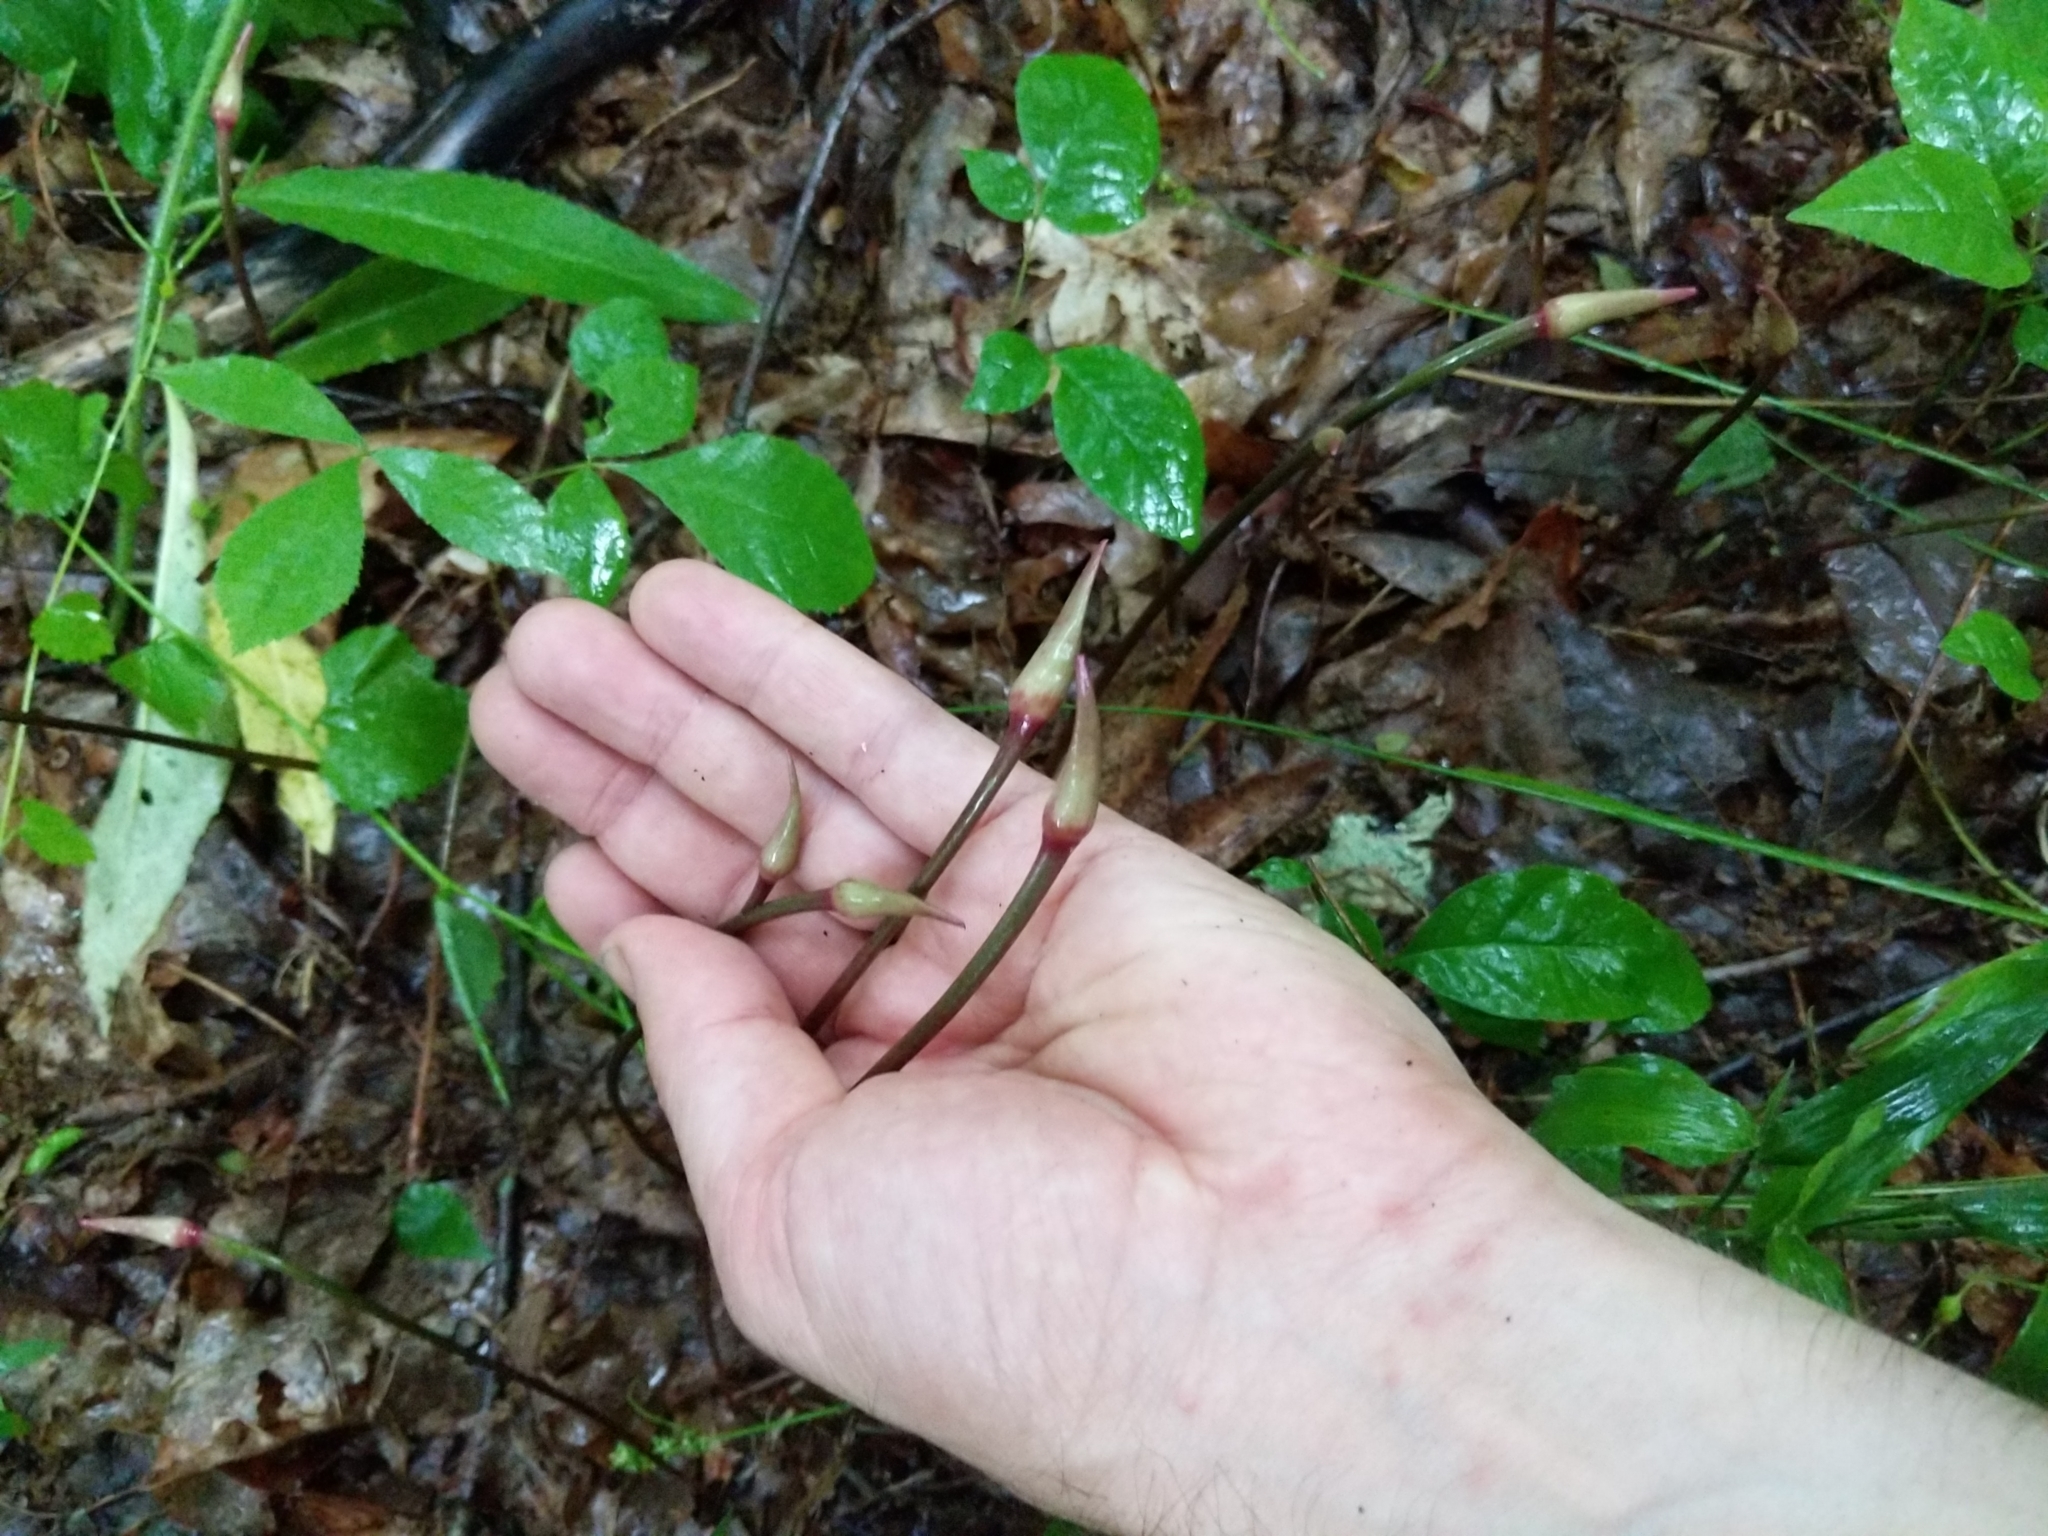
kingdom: Plantae
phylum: Tracheophyta
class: Liliopsida
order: Asparagales
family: Amaryllidaceae
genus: Allium
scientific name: Allium tricoccum
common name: Ramp
